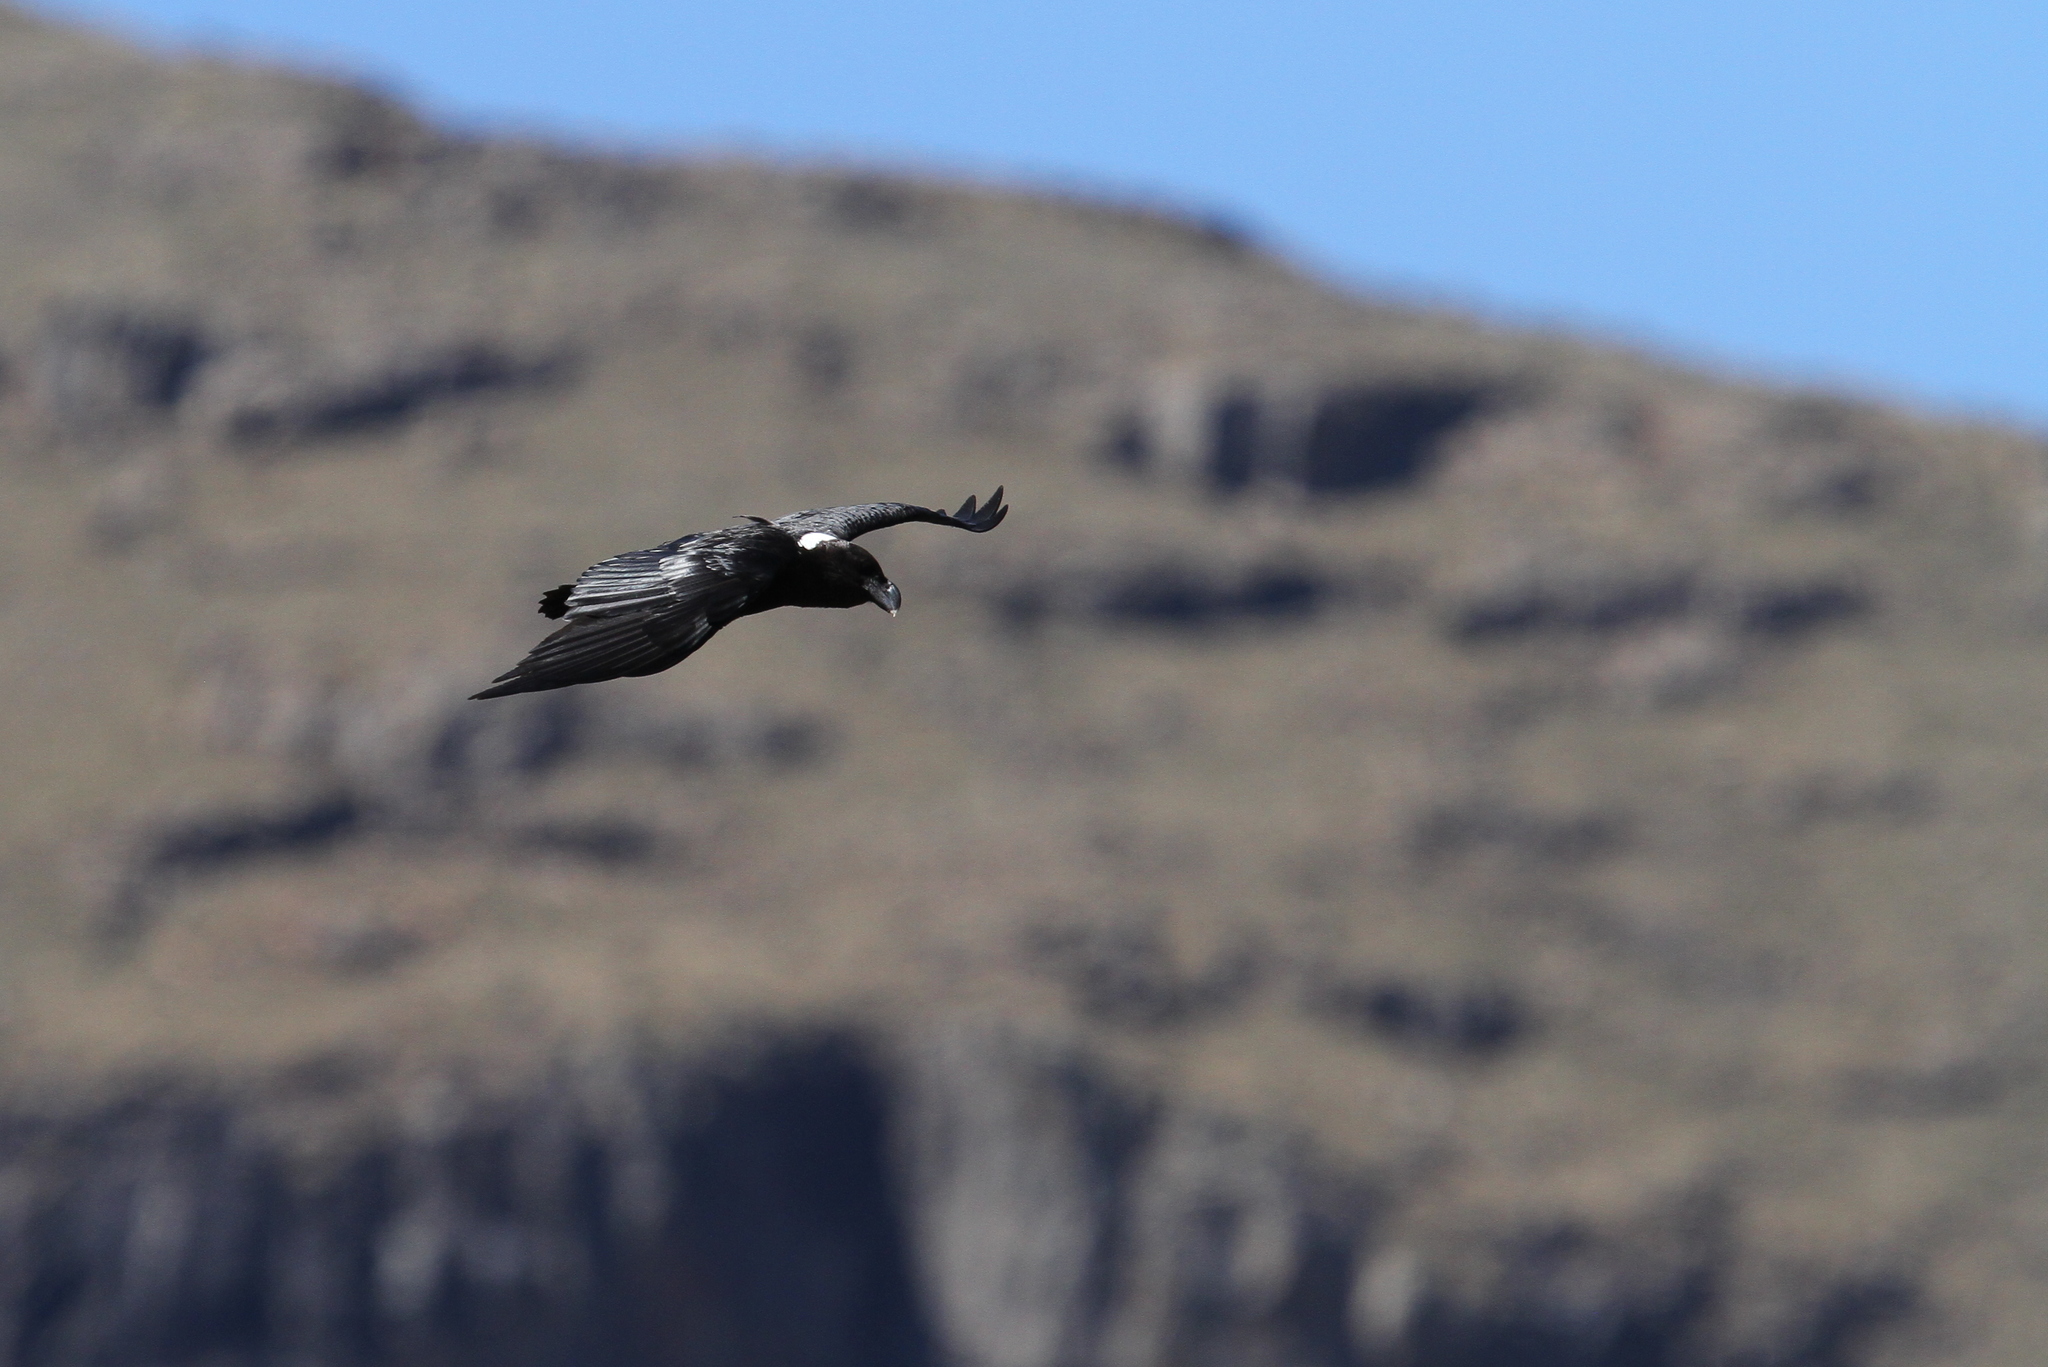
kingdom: Animalia
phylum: Chordata
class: Aves
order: Passeriformes
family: Corvidae
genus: Corvus
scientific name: Corvus albicollis
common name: White-necked raven
